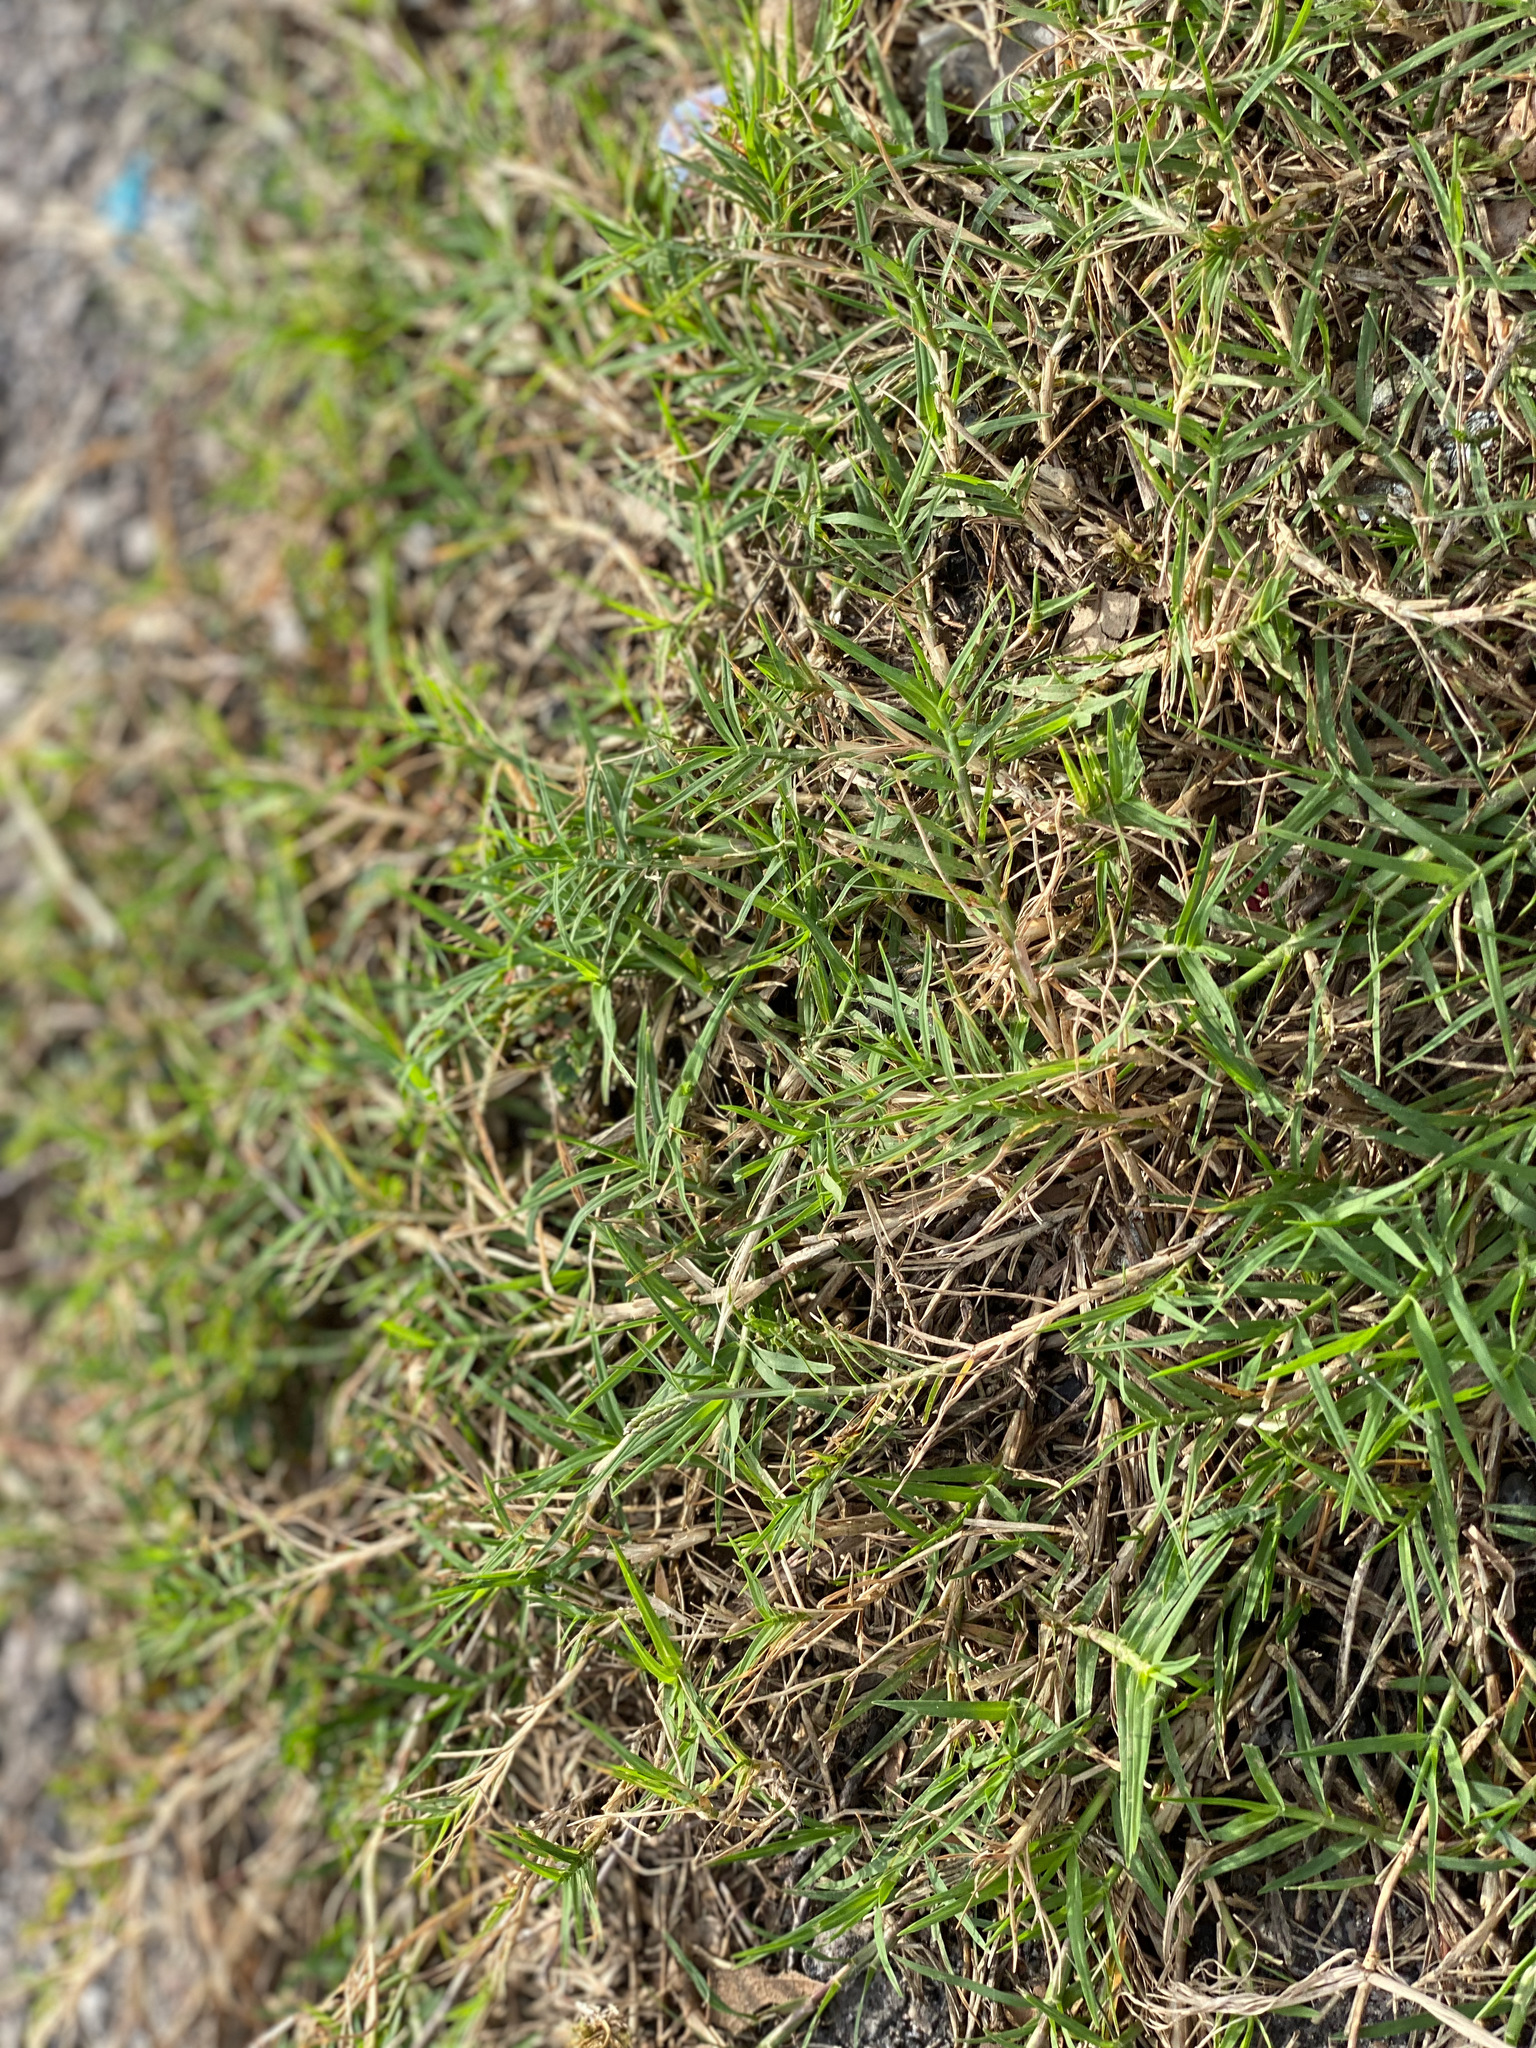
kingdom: Plantae
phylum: Tracheophyta
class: Liliopsida
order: Poales
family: Poaceae
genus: Cynodon
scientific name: Cynodon dactylon
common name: Bermuda grass
